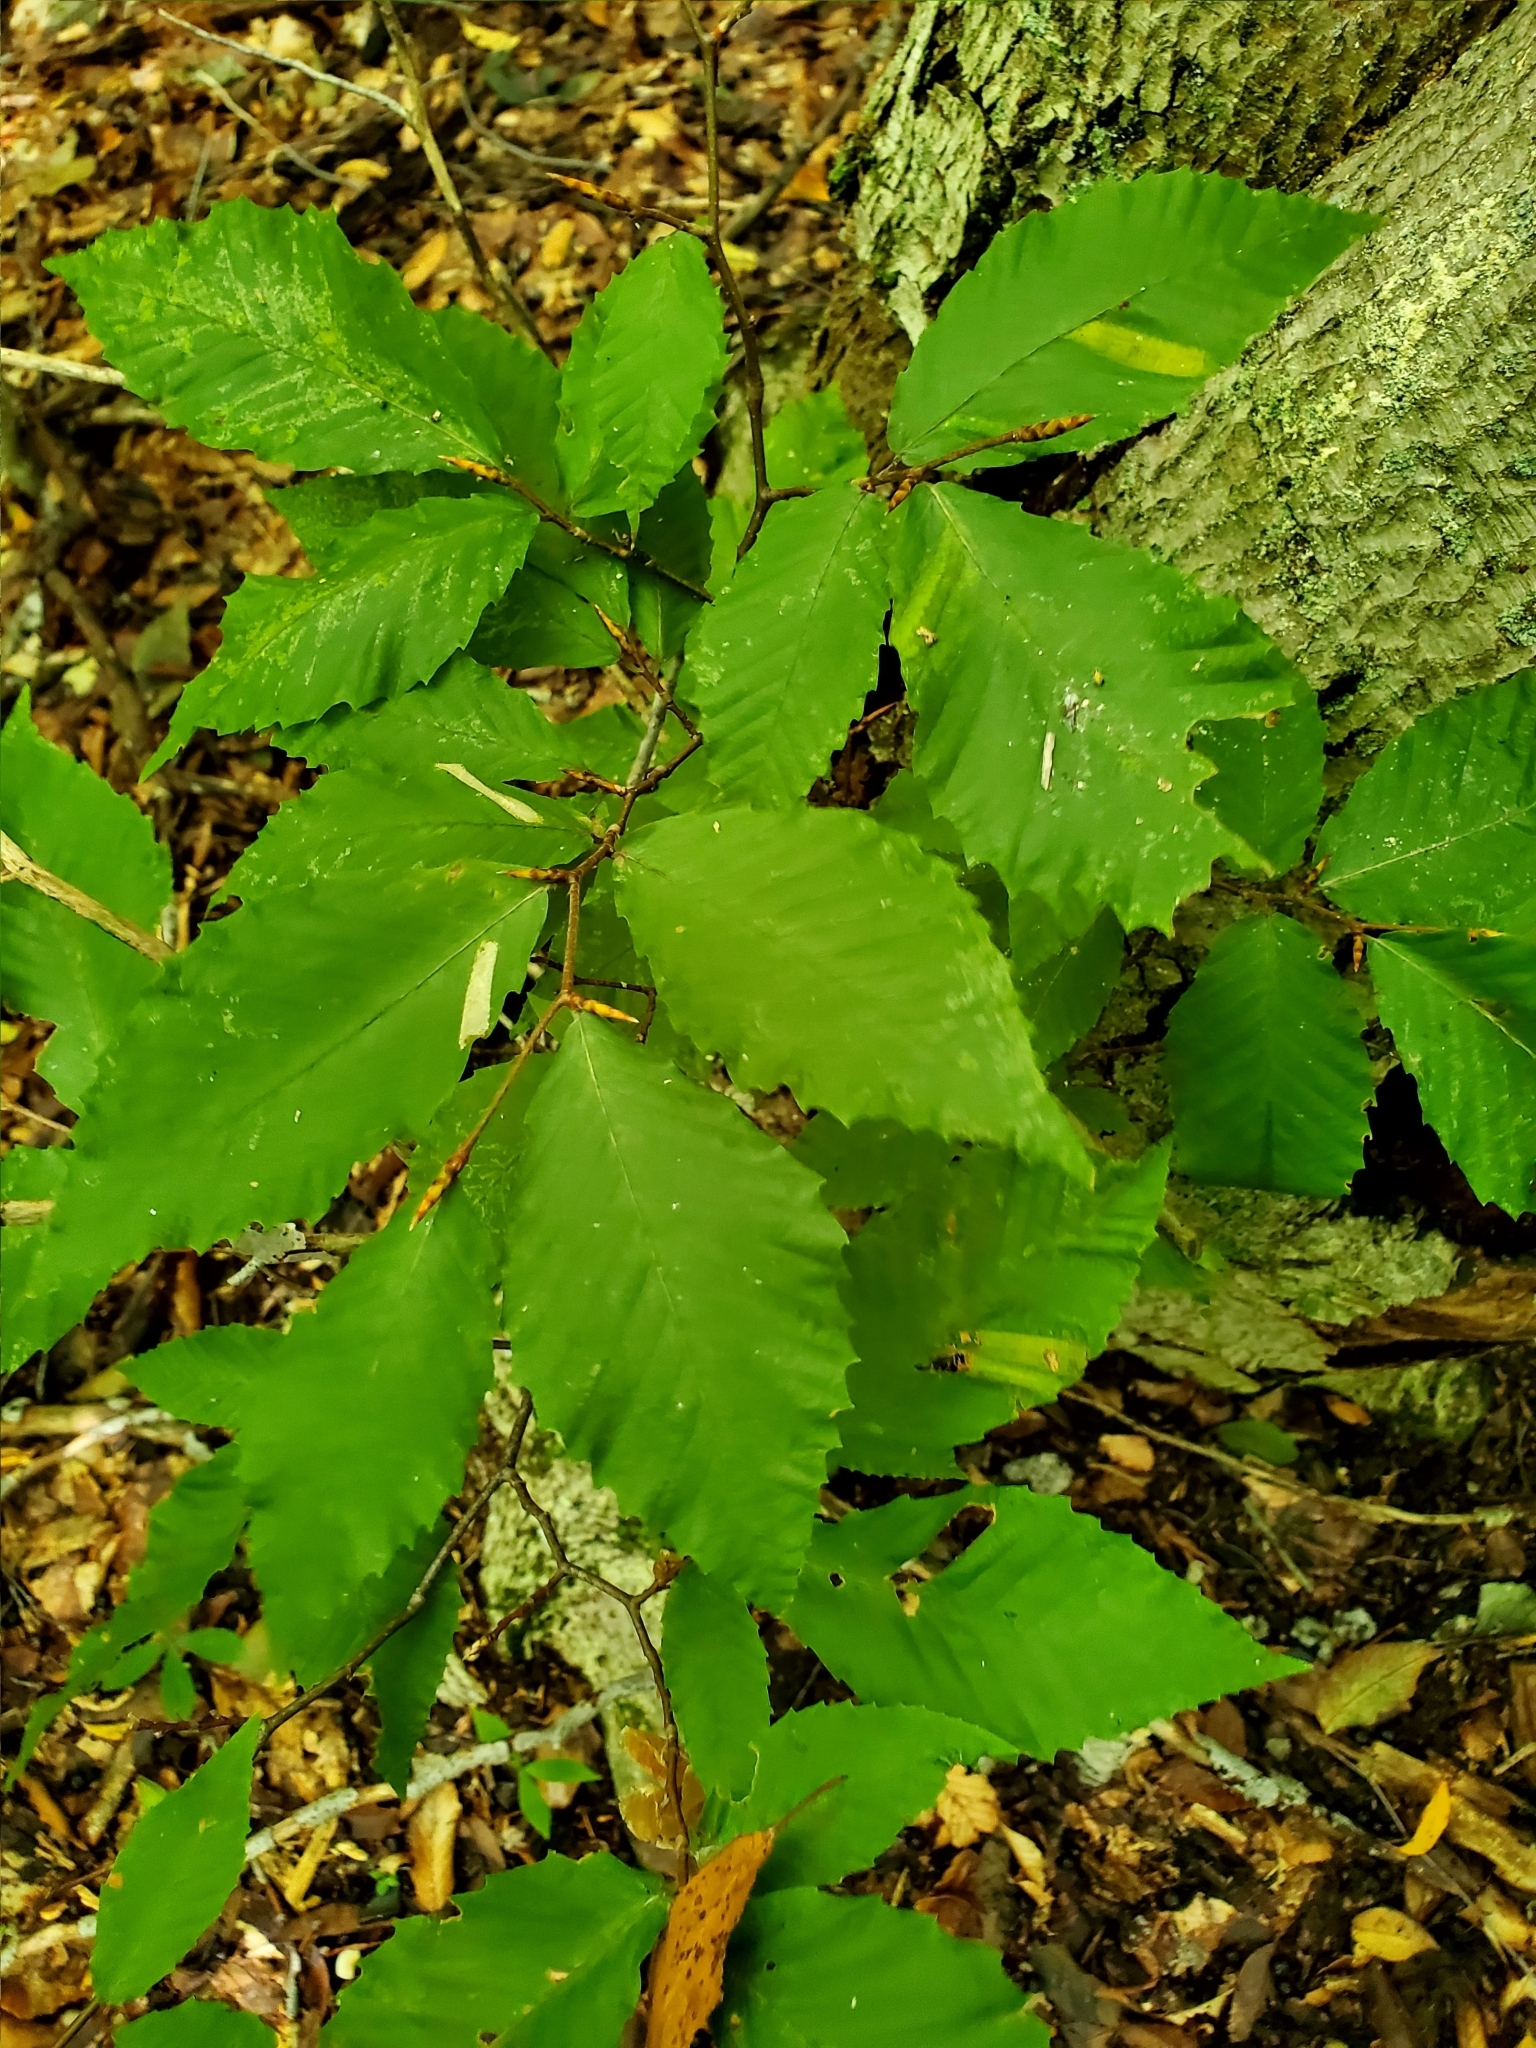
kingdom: Plantae
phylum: Tracheophyta
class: Magnoliopsida
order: Fagales
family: Fagaceae
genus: Fagus
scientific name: Fagus grandifolia
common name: American beech
